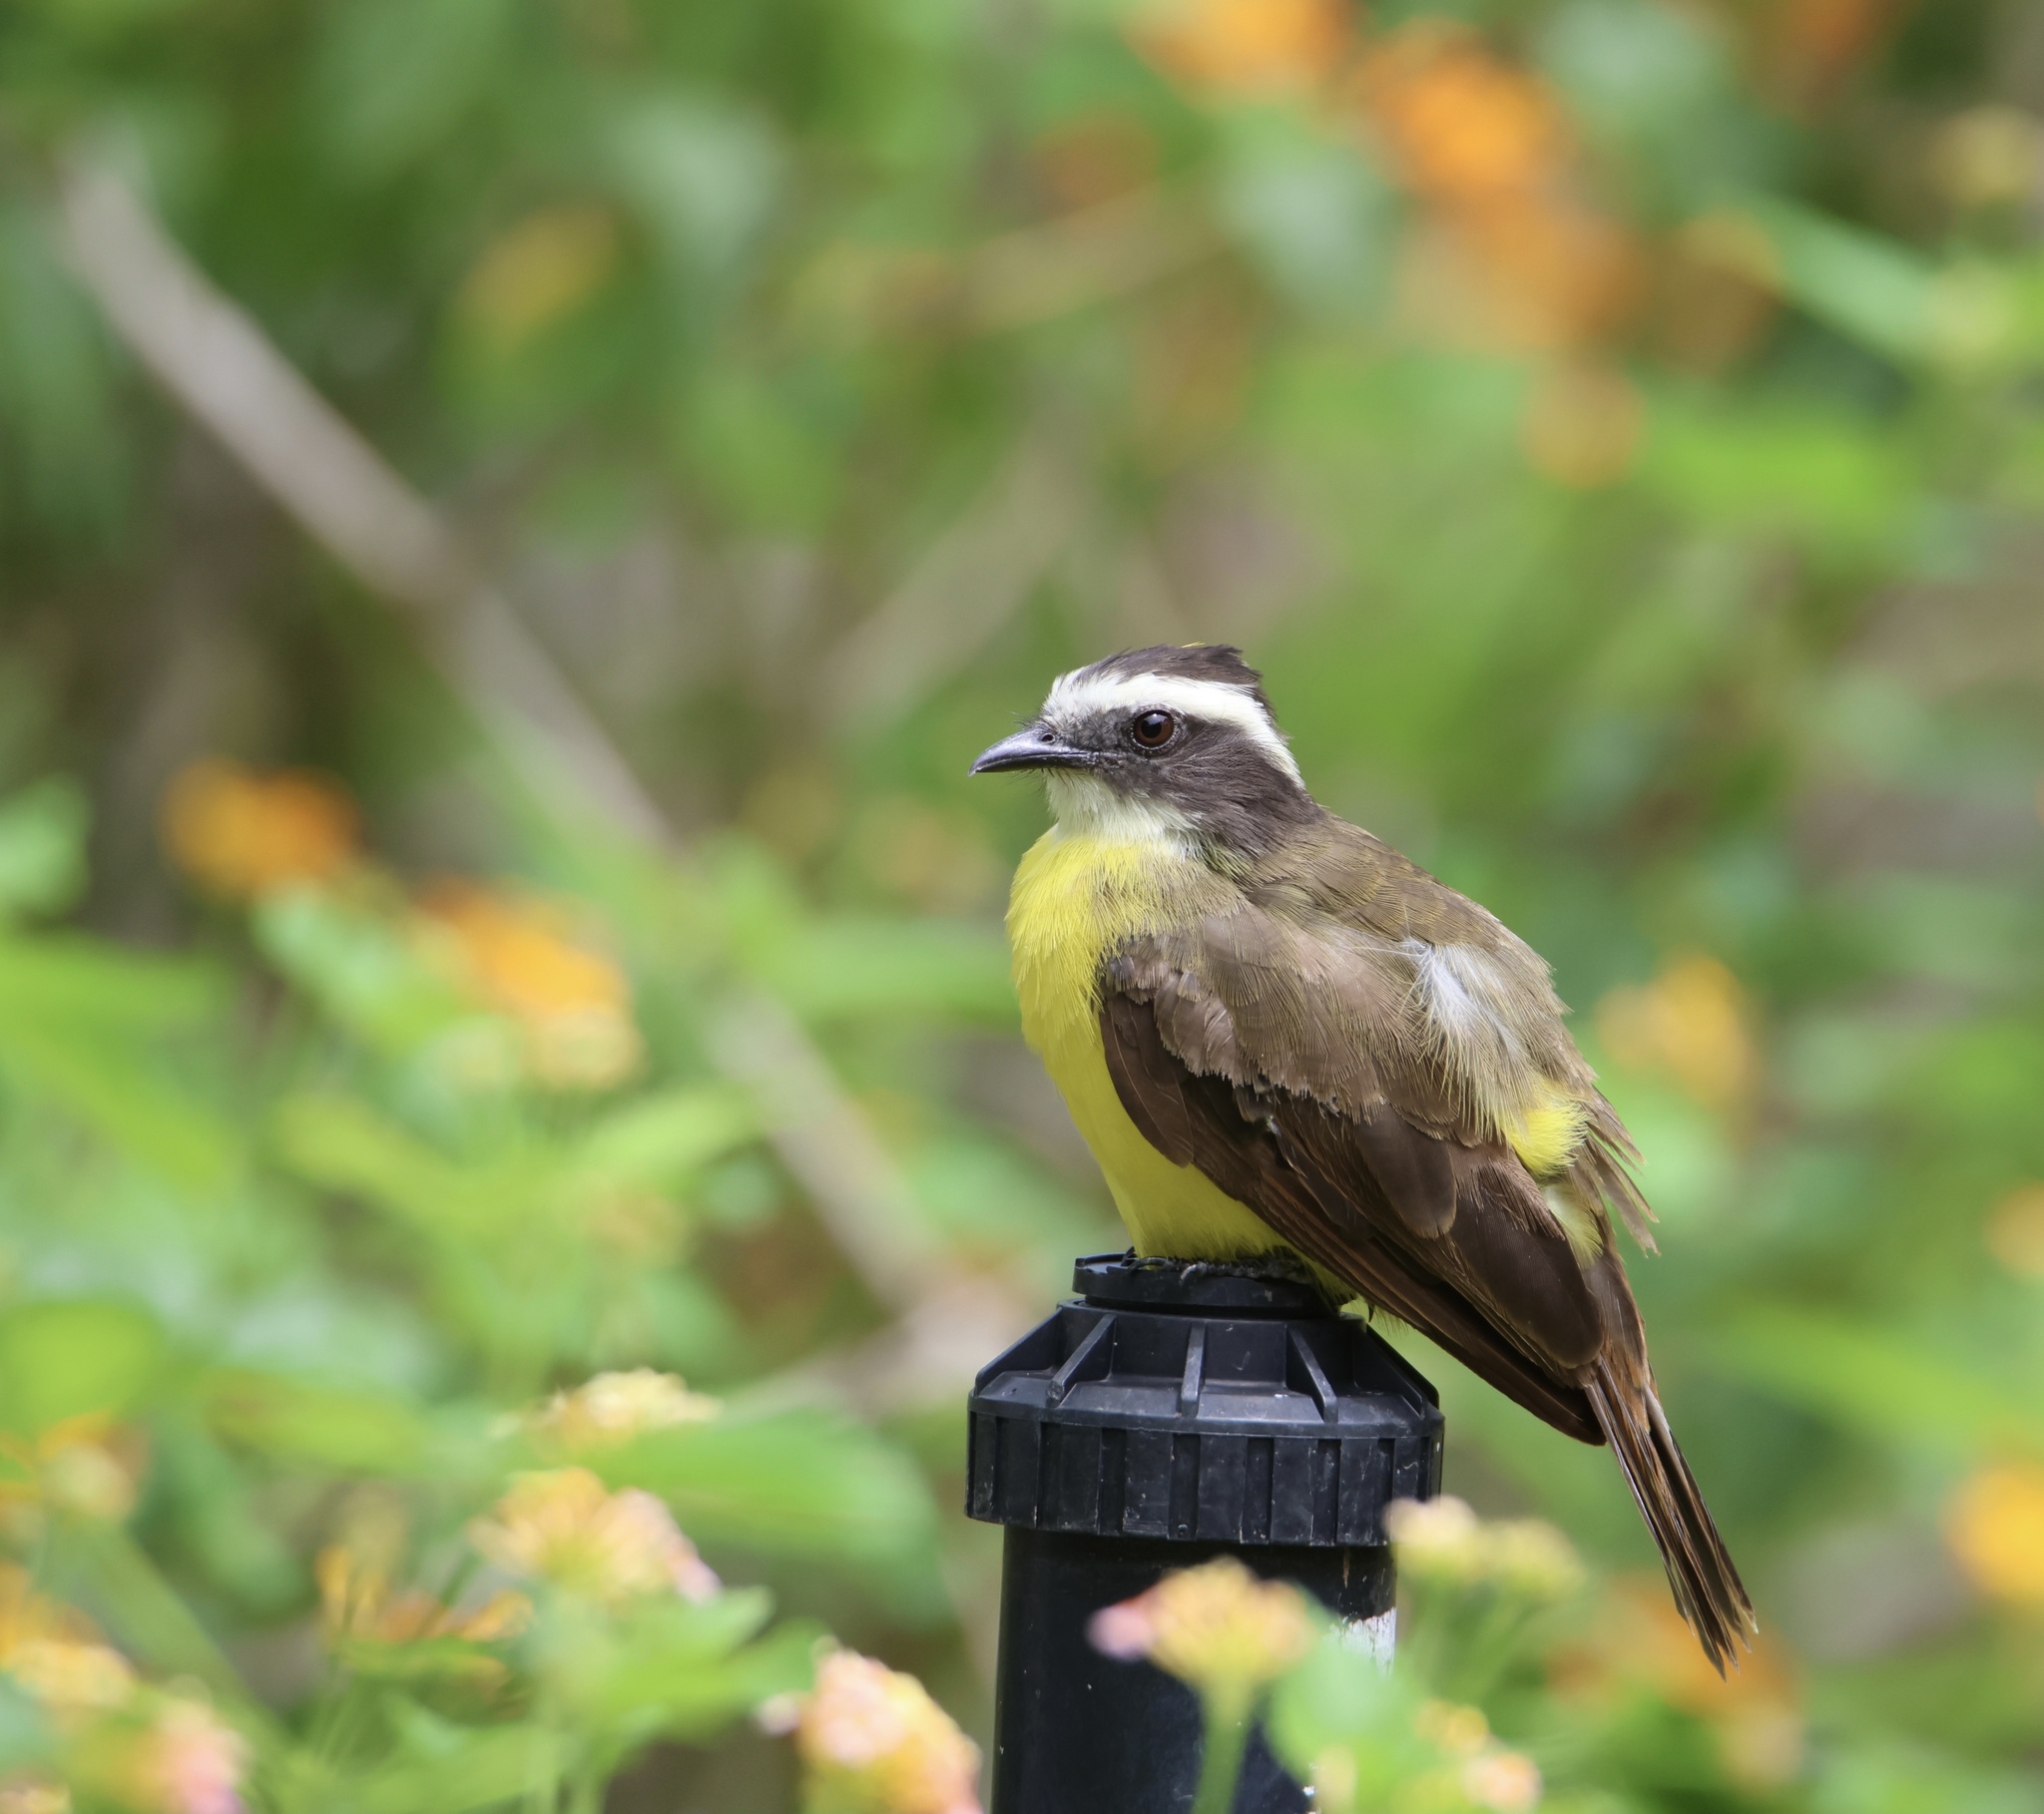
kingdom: Animalia
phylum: Chordata
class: Aves
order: Passeriformes
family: Tyrannidae
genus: Myiozetetes
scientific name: Myiozetetes cayanensis
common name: Rusty-margined flycatcher
